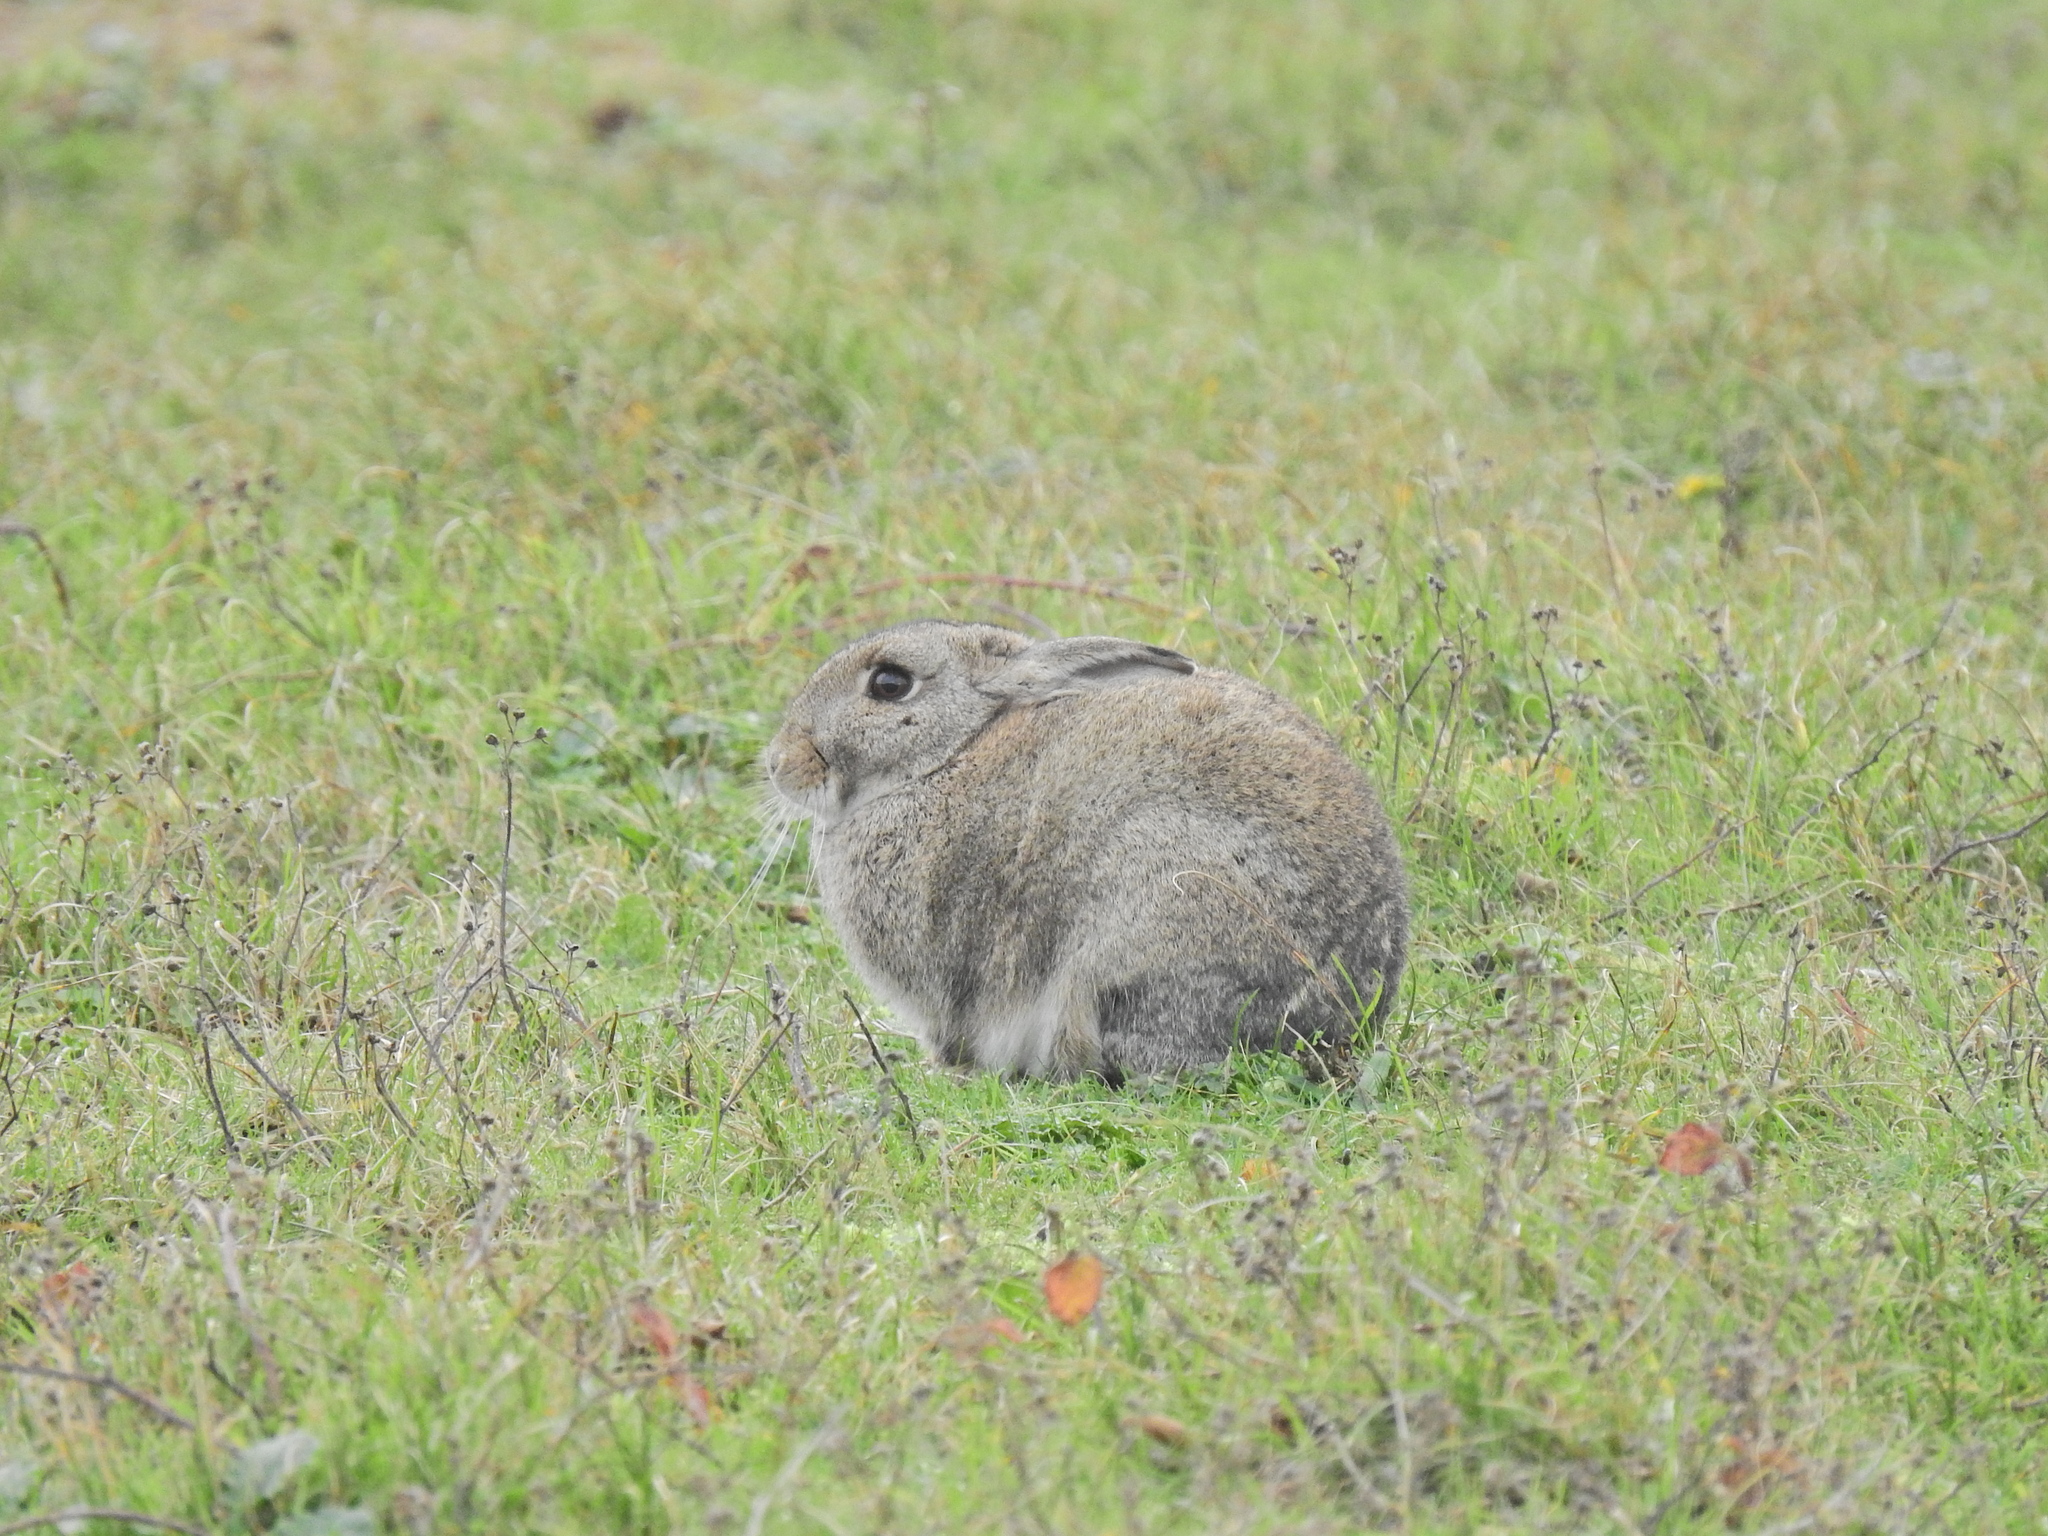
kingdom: Animalia
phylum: Chordata
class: Mammalia
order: Lagomorpha
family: Leporidae
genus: Oryctolagus
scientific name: Oryctolagus cuniculus
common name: European rabbit
